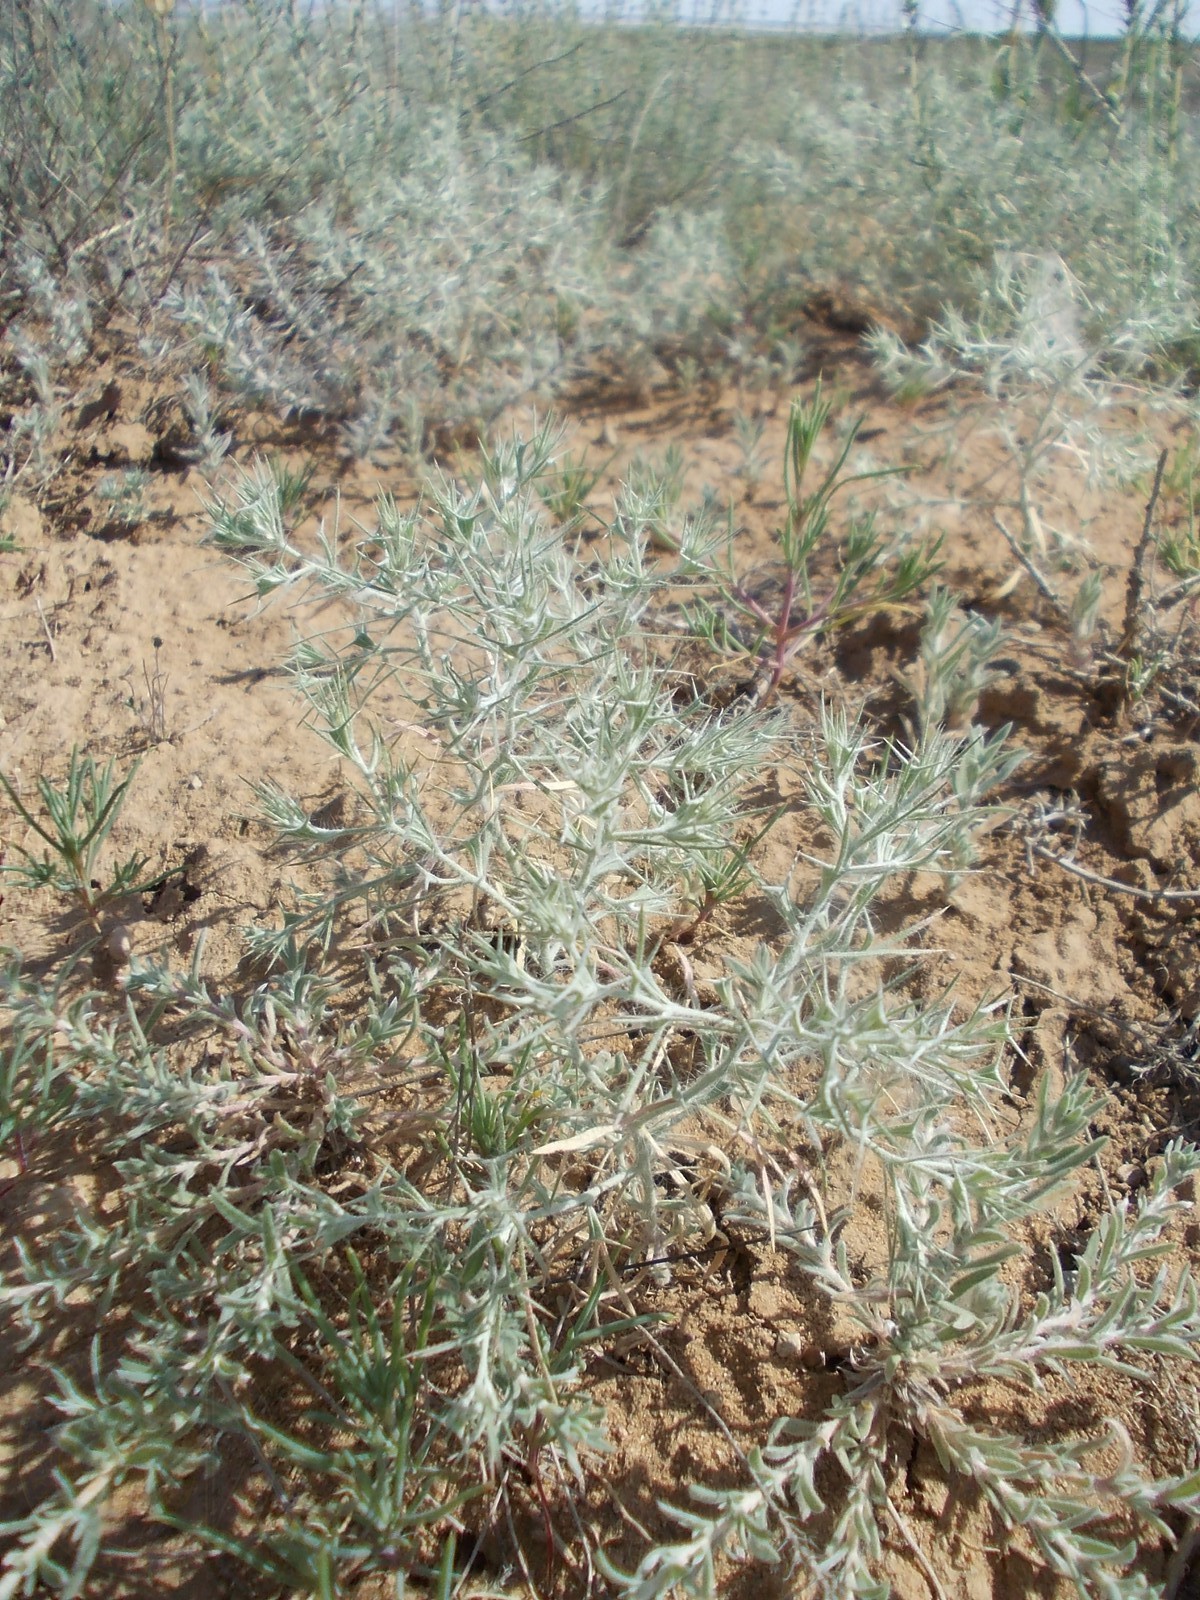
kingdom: Plantae
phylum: Tracheophyta
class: Magnoliopsida
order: Caryophyllales
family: Amaranthaceae
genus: Ceratocarpus
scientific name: Ceratocarpus arenarius
